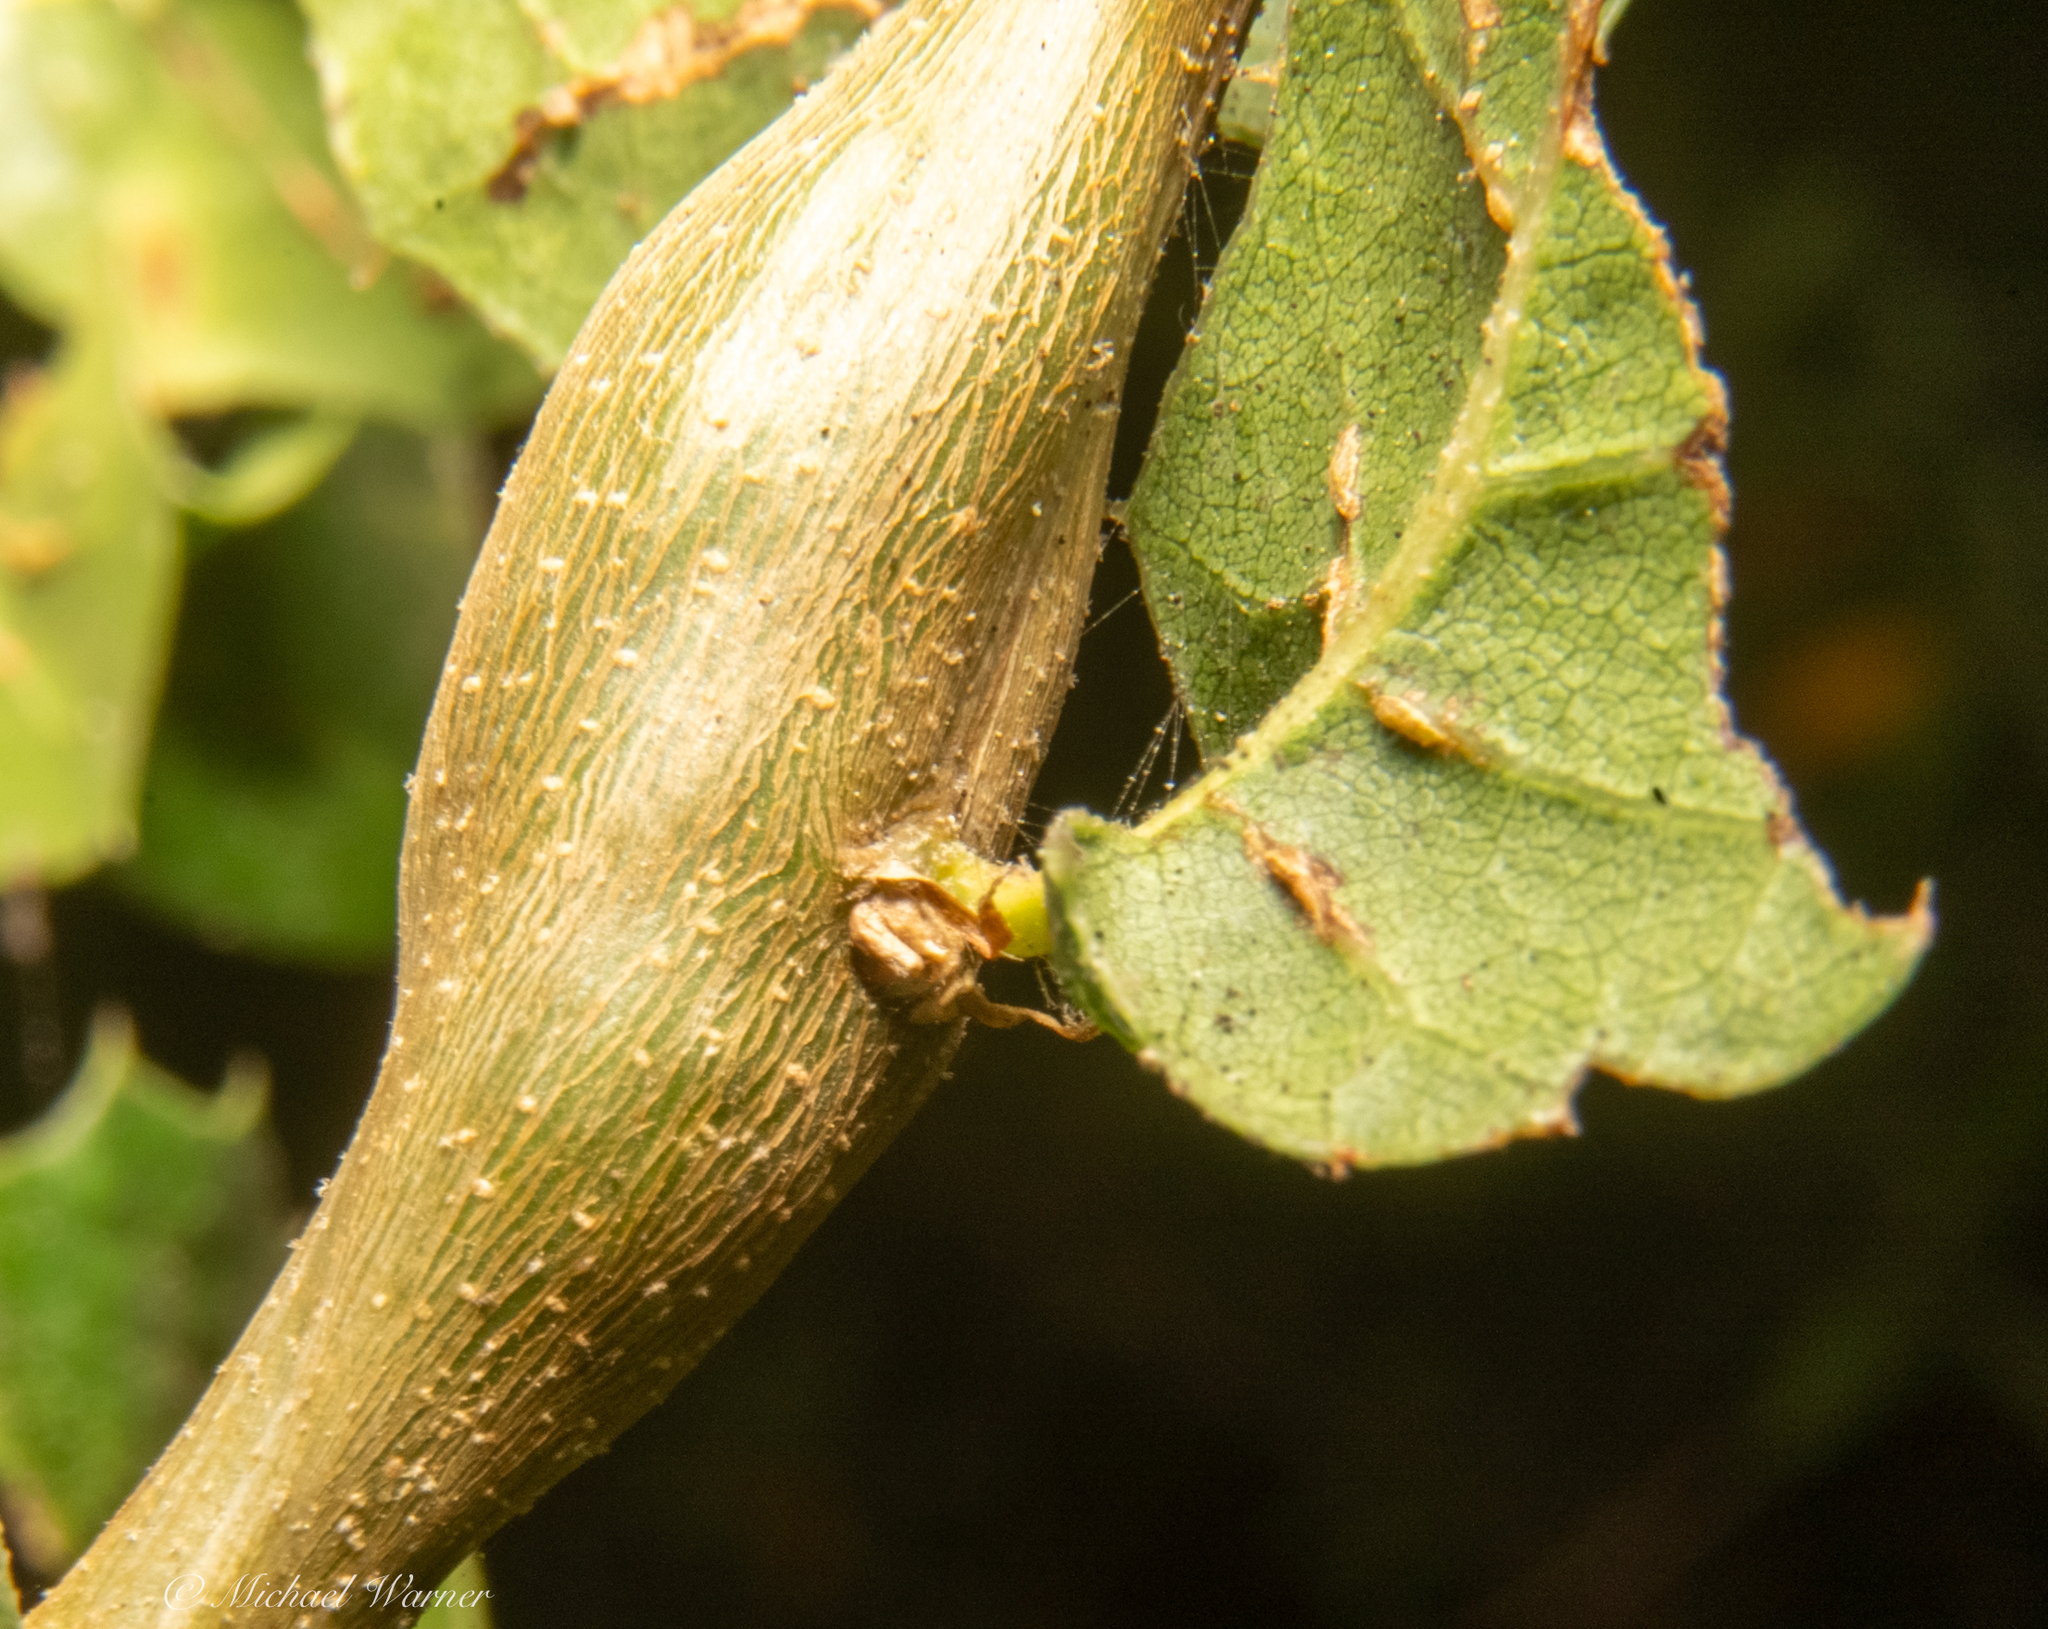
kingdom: Animalia
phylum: Arthropoda
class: Insecta
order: Hymenoptera
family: Cynipidae
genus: Callirhytis
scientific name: Callirhytis
